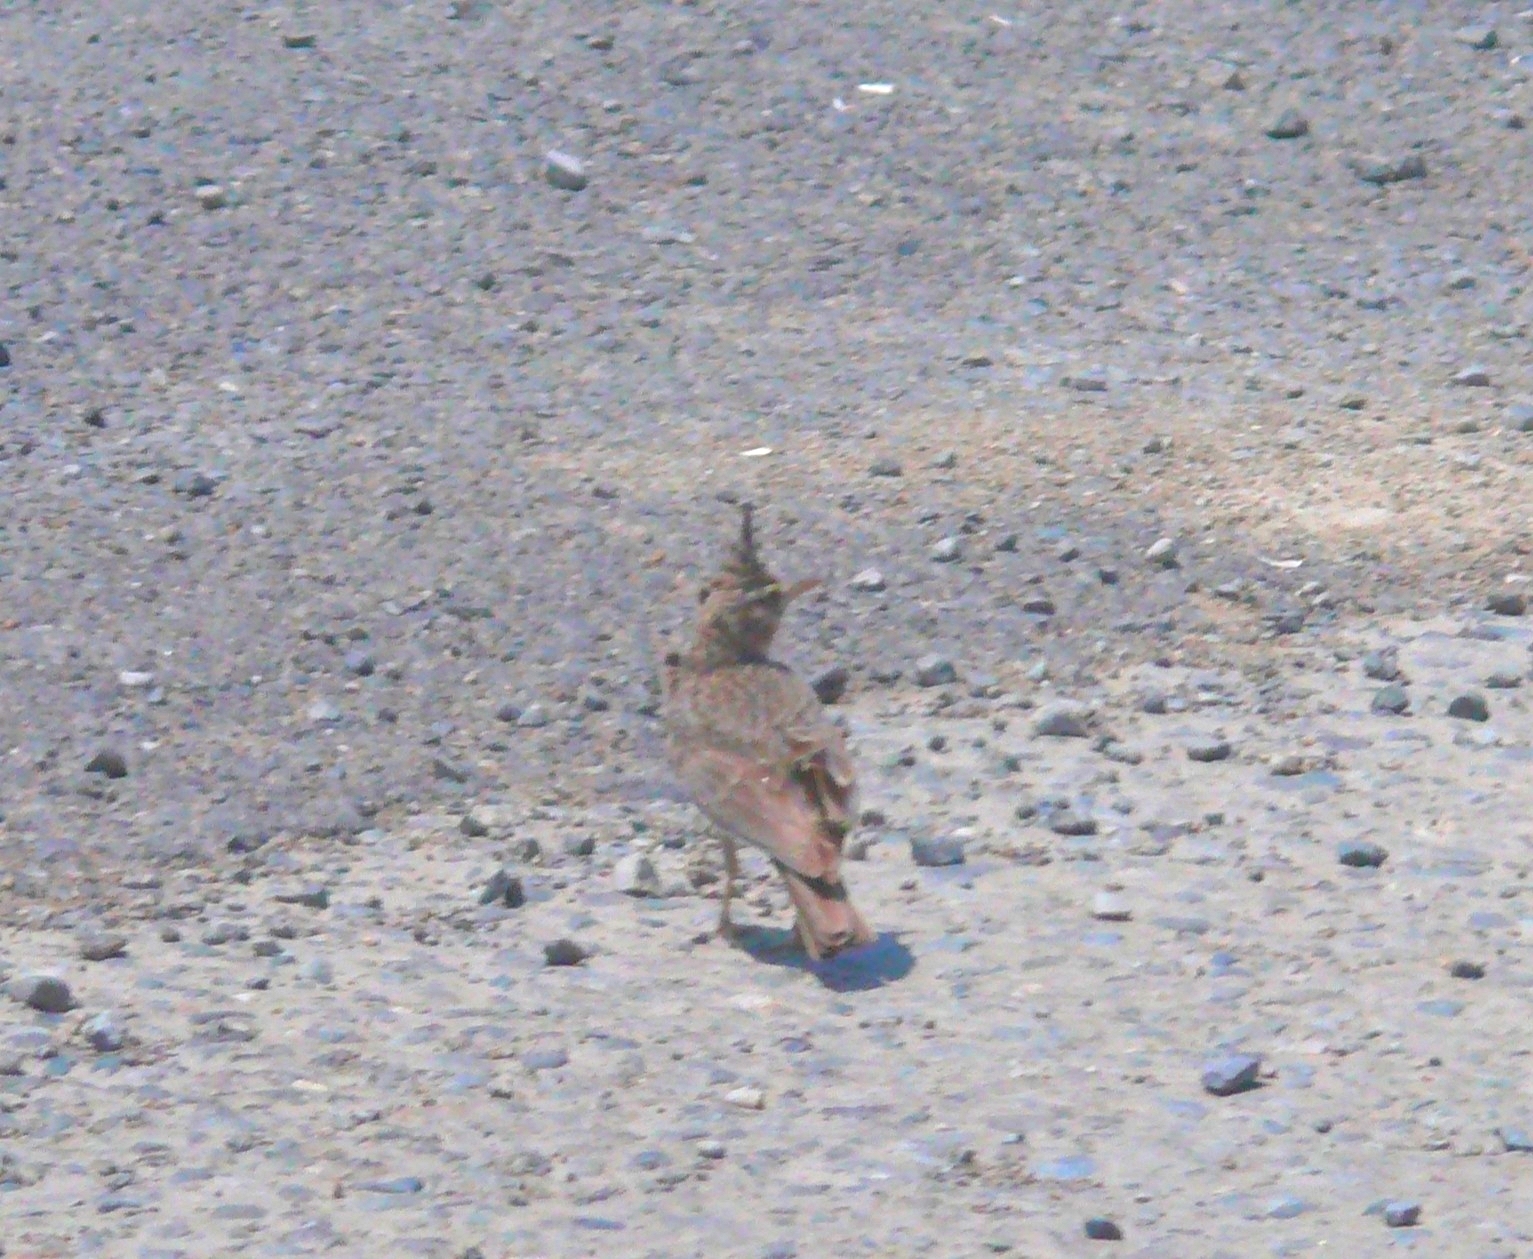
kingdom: Animalia
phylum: Chordata
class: Aves
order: Passeriformes
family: Alaudidae
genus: Galerida
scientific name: Galerida cristata
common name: Crested lark
